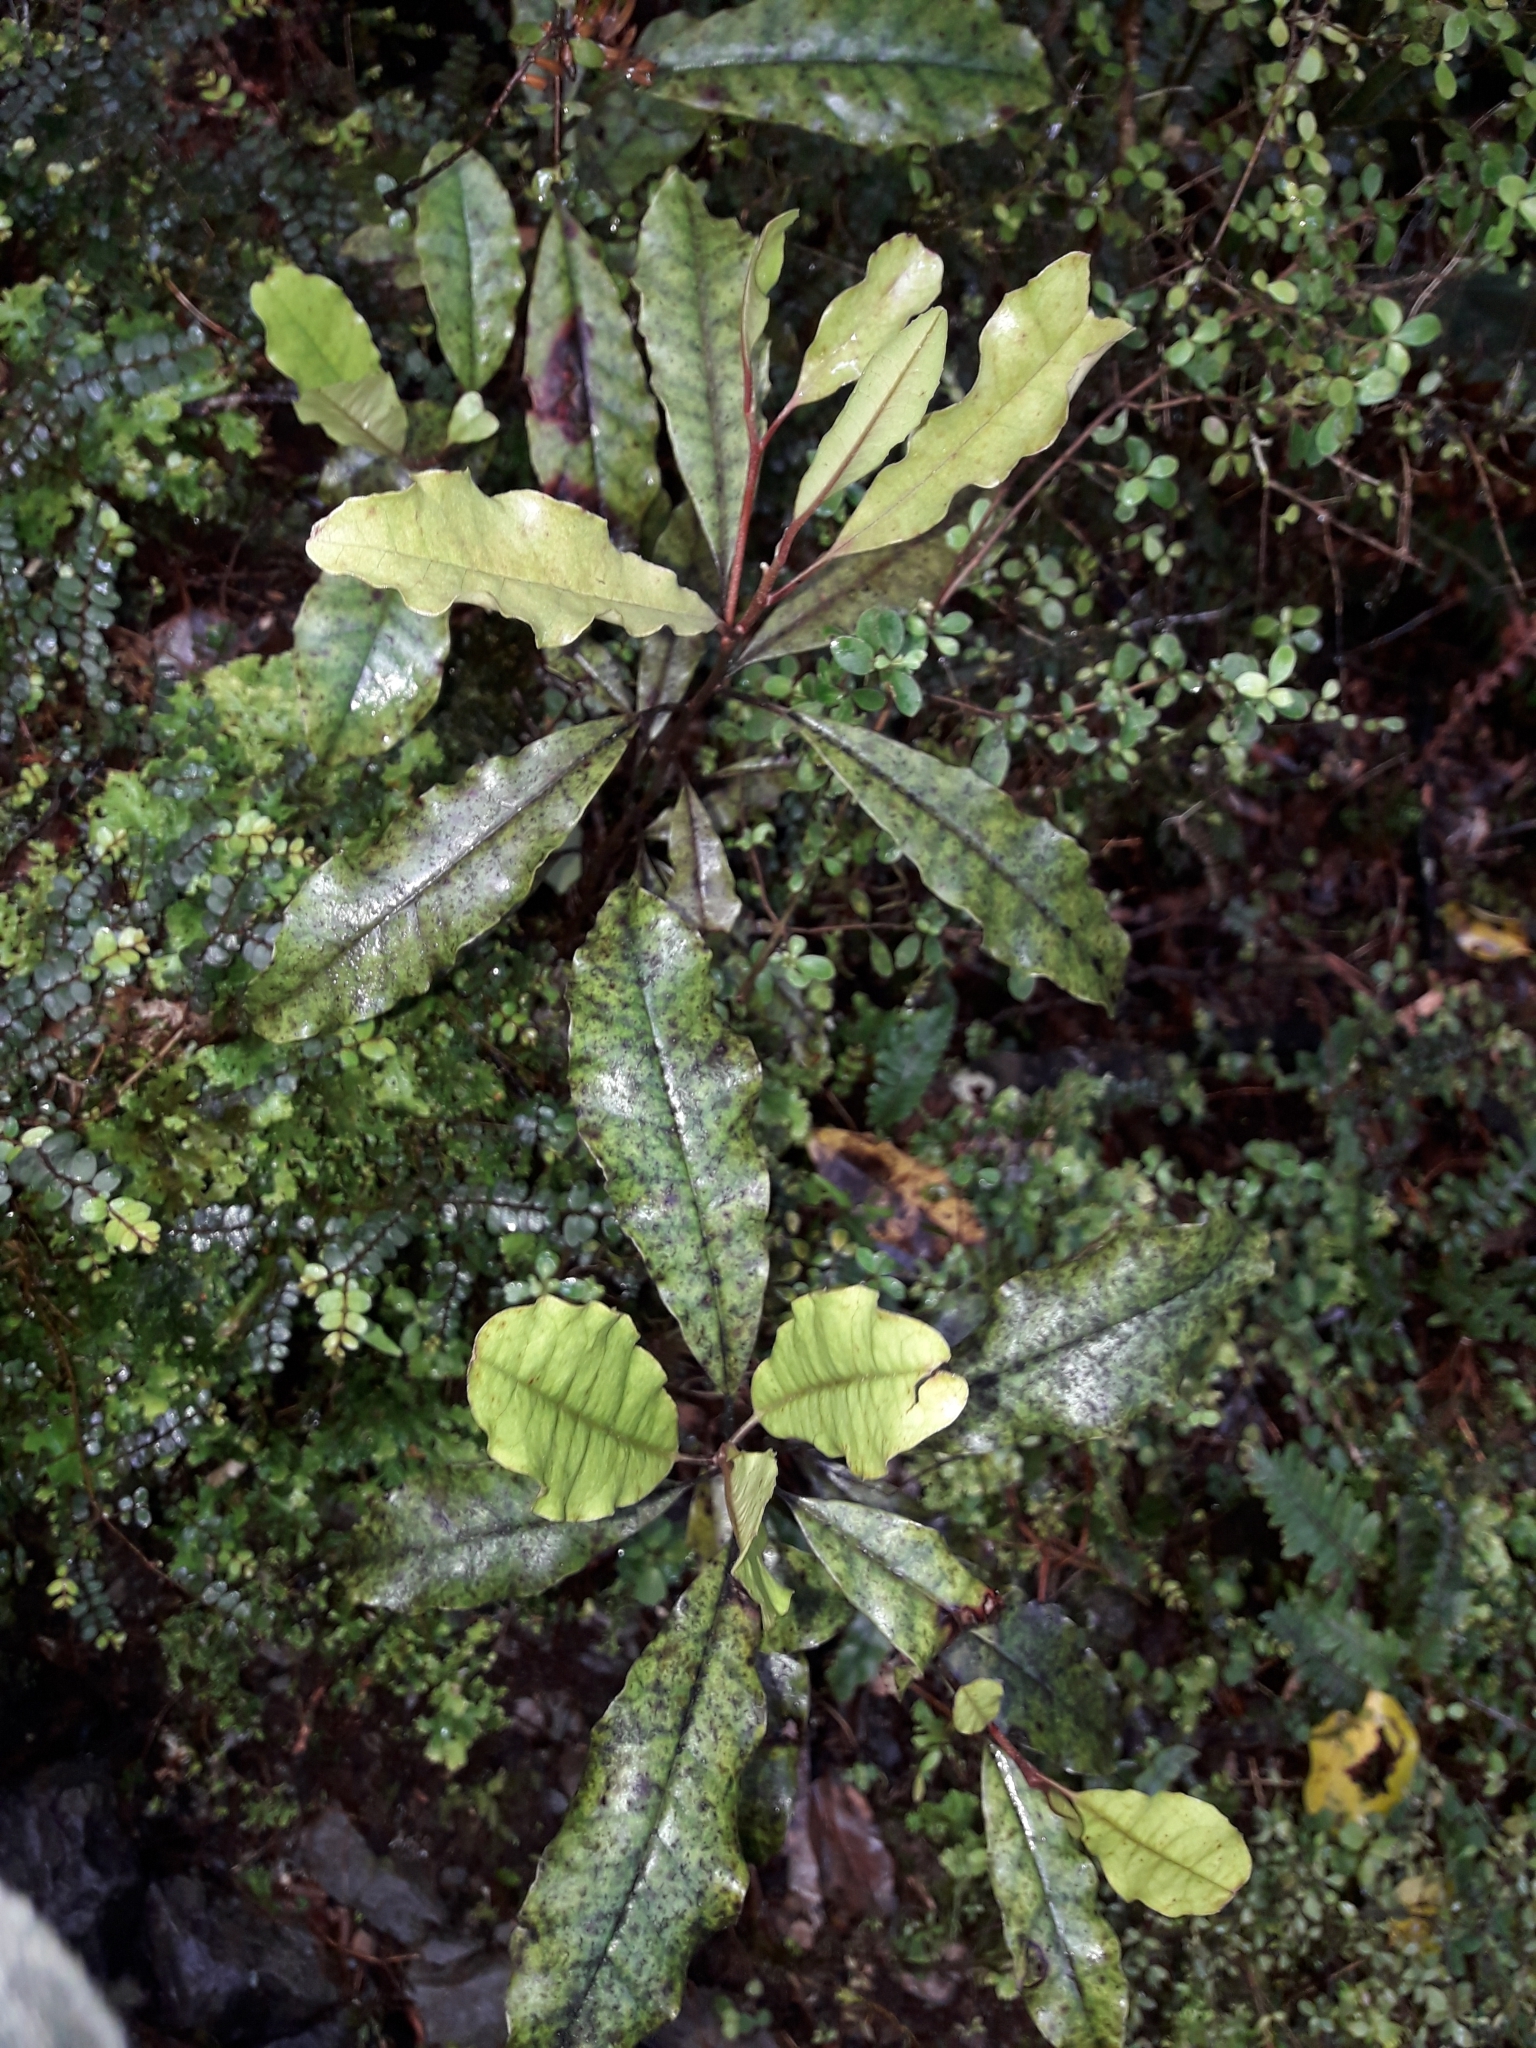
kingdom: Plantae
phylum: Tracheophyta
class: Magnoliopsida
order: Paracryphiales
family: Paracryphiaceae
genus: Quintinia
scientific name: Quintinia serrata
